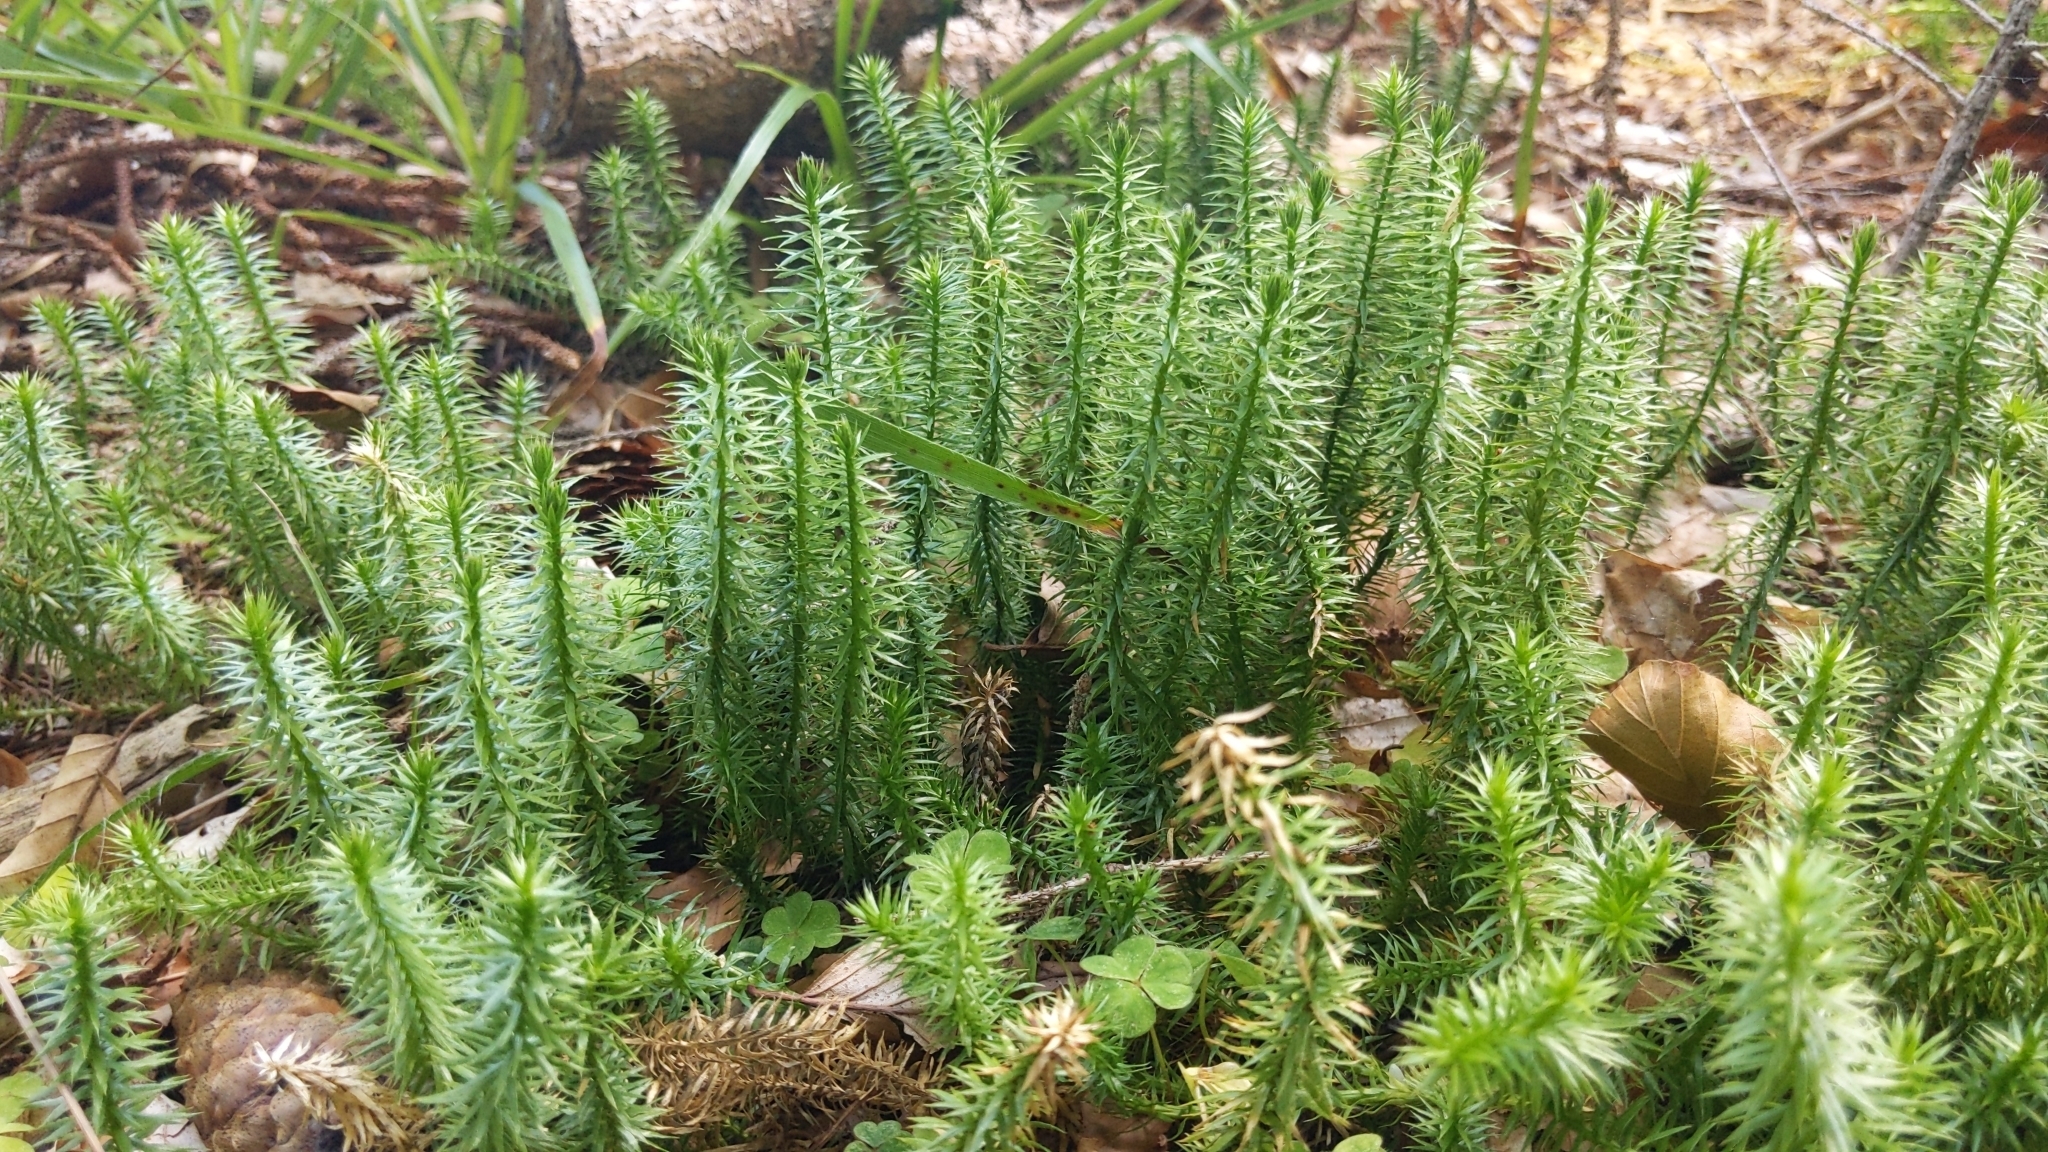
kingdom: Plantae
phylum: Tracheophyta
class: Lycopodiopsida
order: Lycopodiales
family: Lycopodiaceae
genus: Spinulum
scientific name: Spinulum annotinum
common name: Interrupted club-moss
